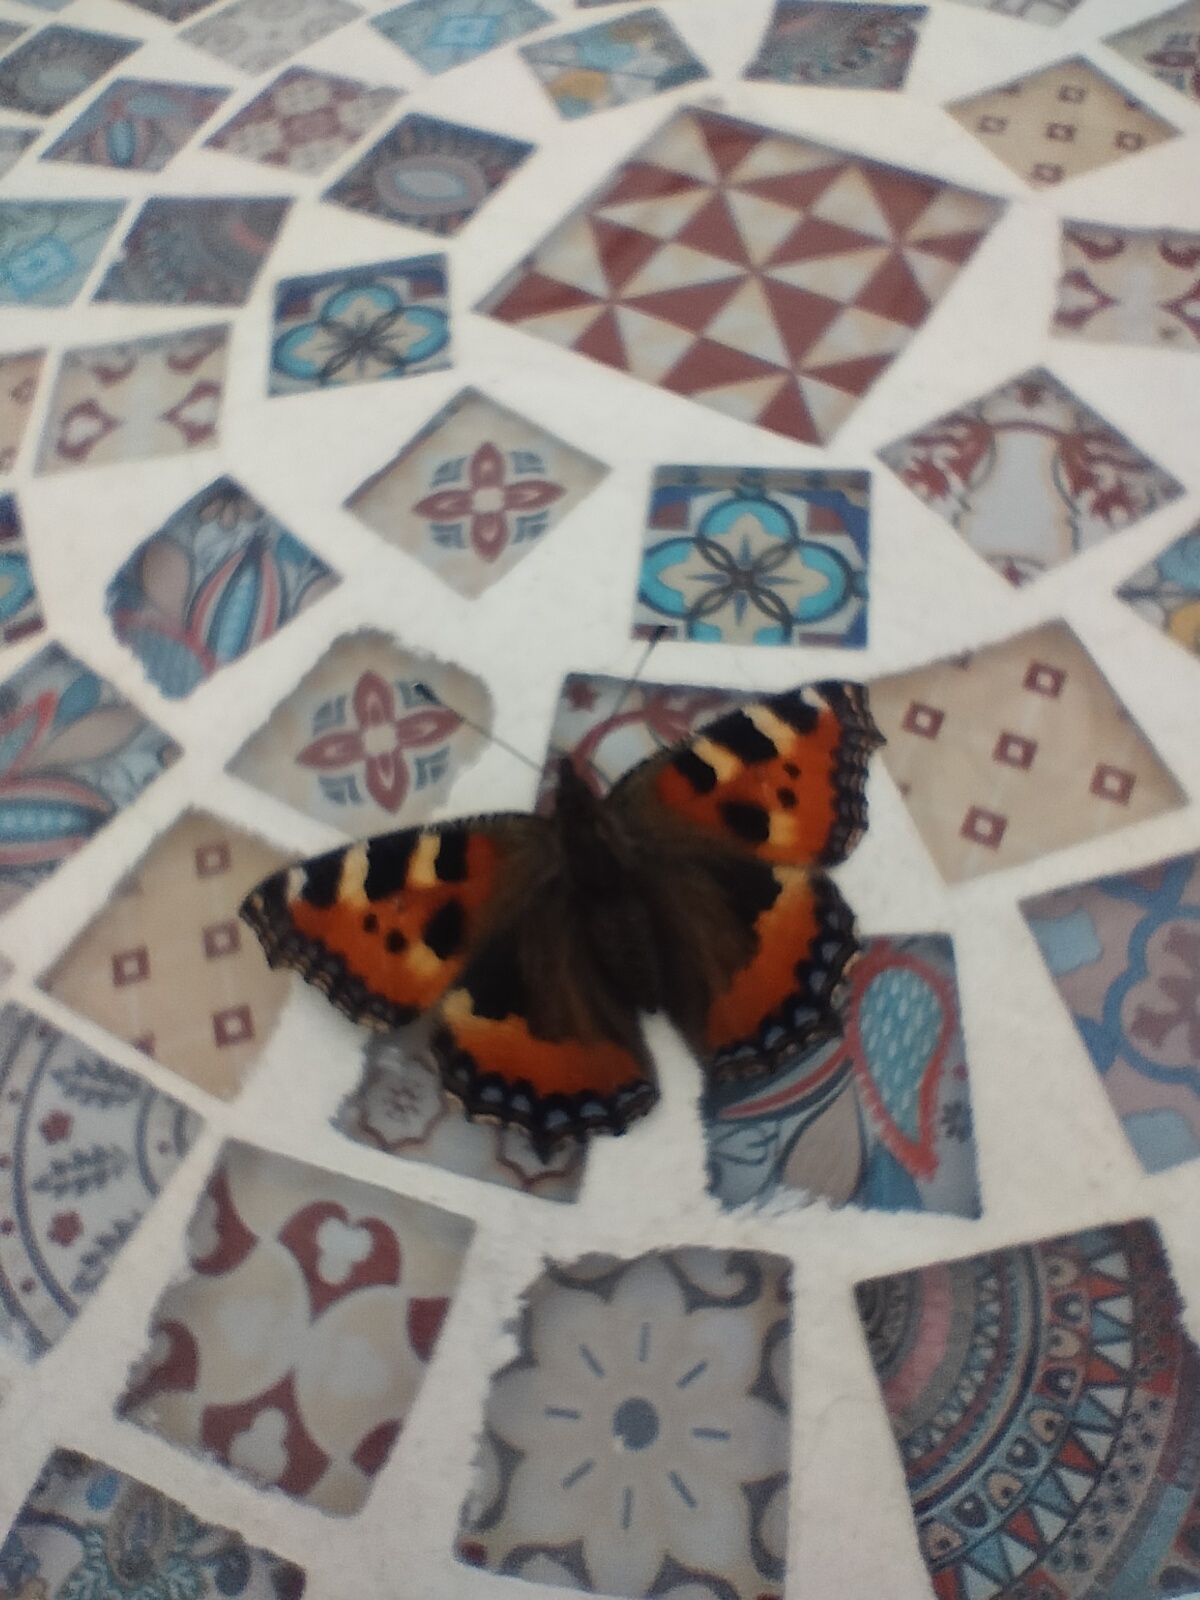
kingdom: Animalia
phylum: Arthropoda
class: Insecta
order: Lepidoptera
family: Nymphalidae
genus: Aglais
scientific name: Aglais urticae
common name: Small tortoiseshell
